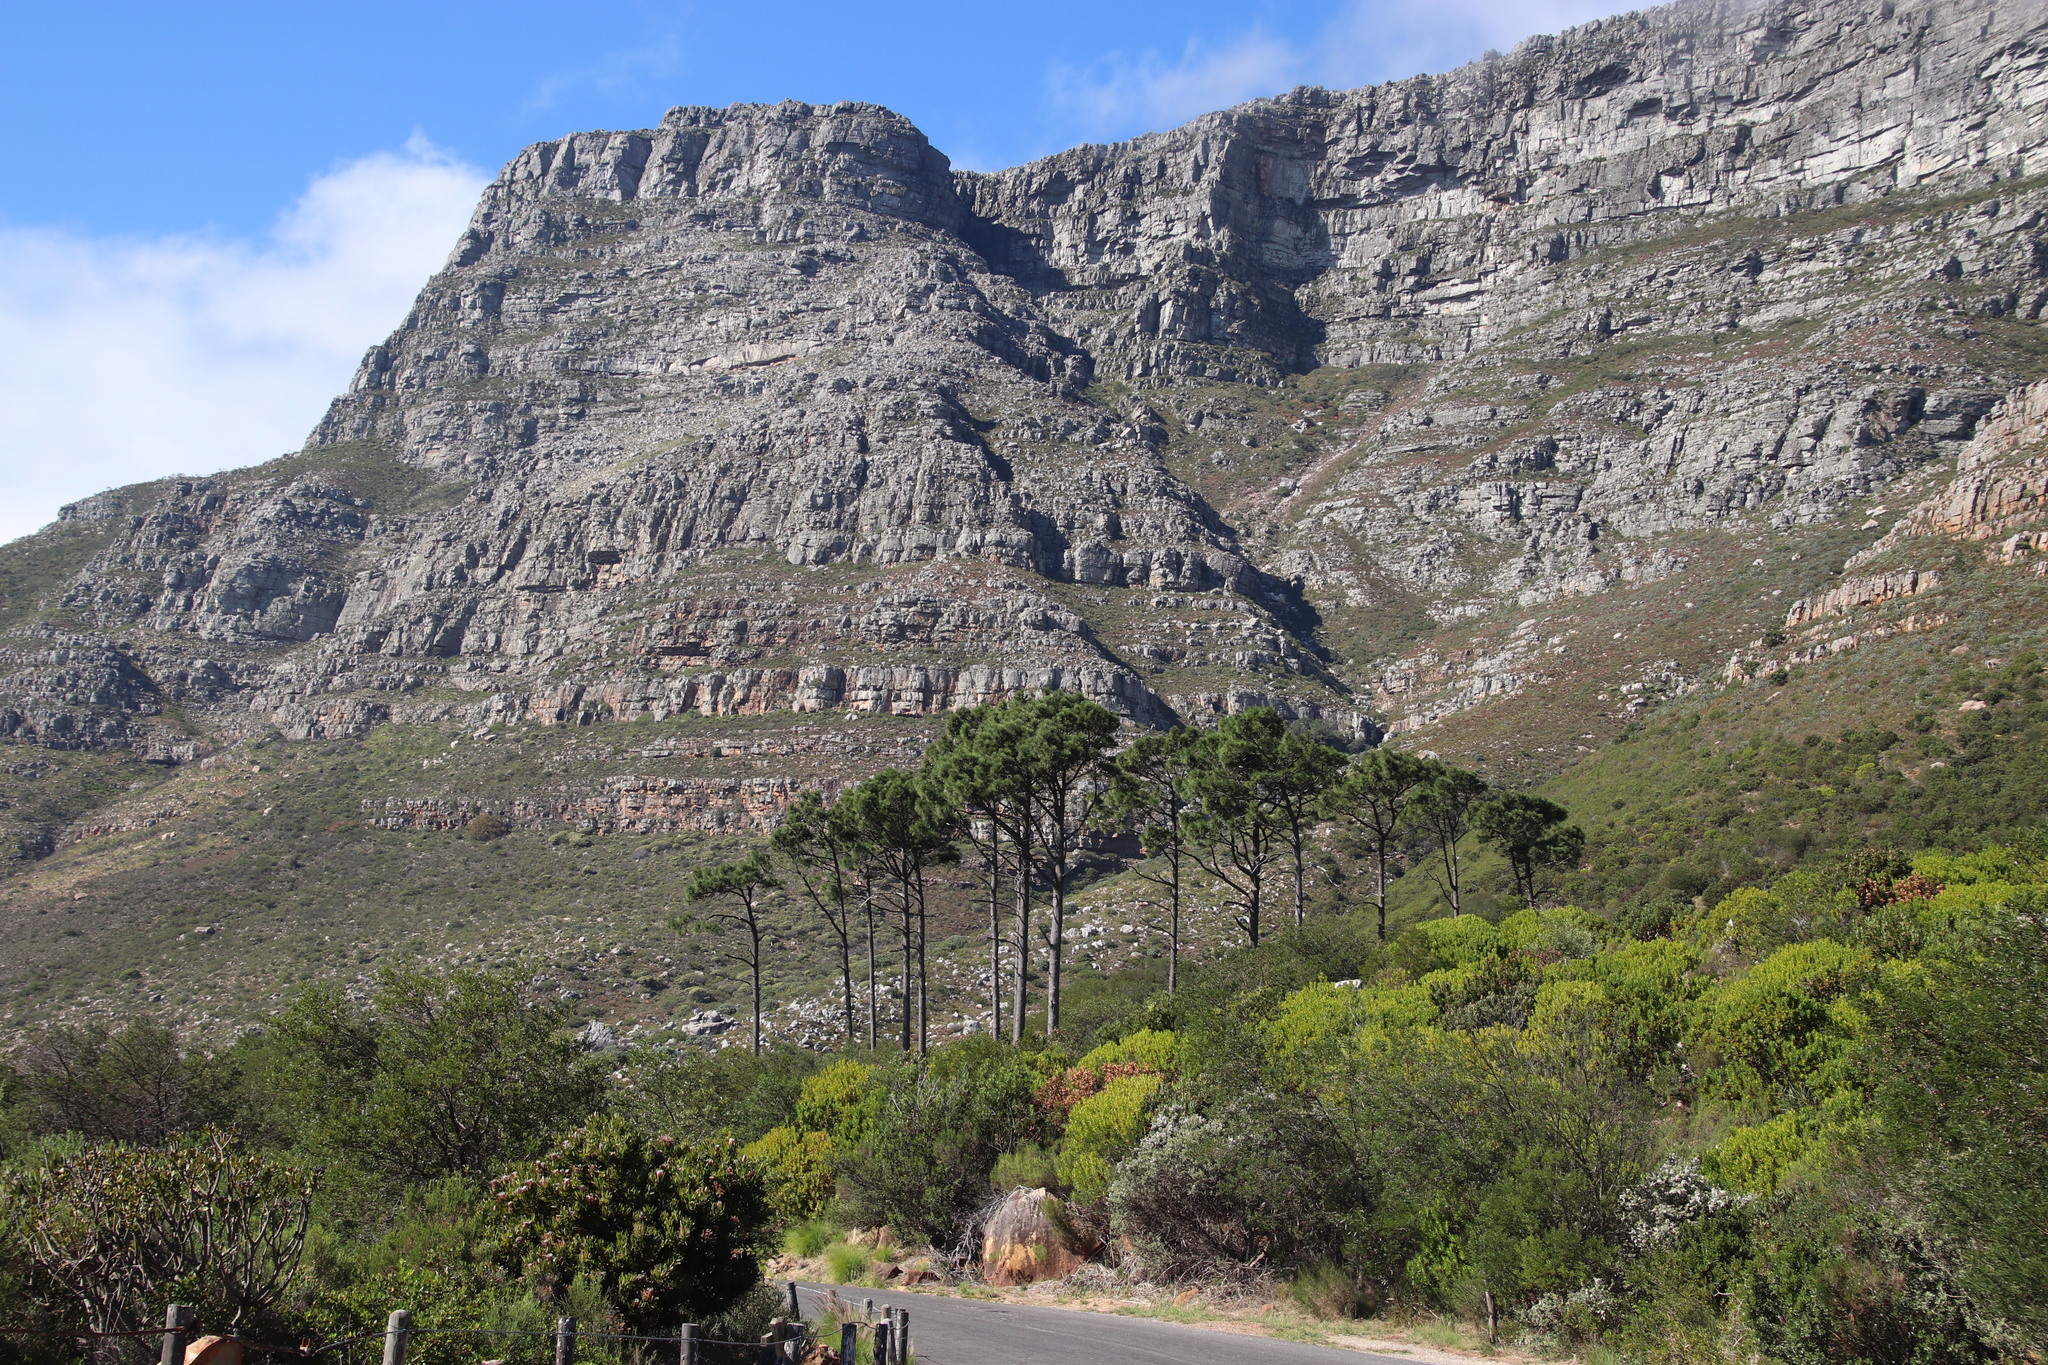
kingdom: Plantae
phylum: Tracheophyta
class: Pinopsida
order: Pinales
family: Pinaceae
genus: Pinus
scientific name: Pinus pinaster
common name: Maritime pine
